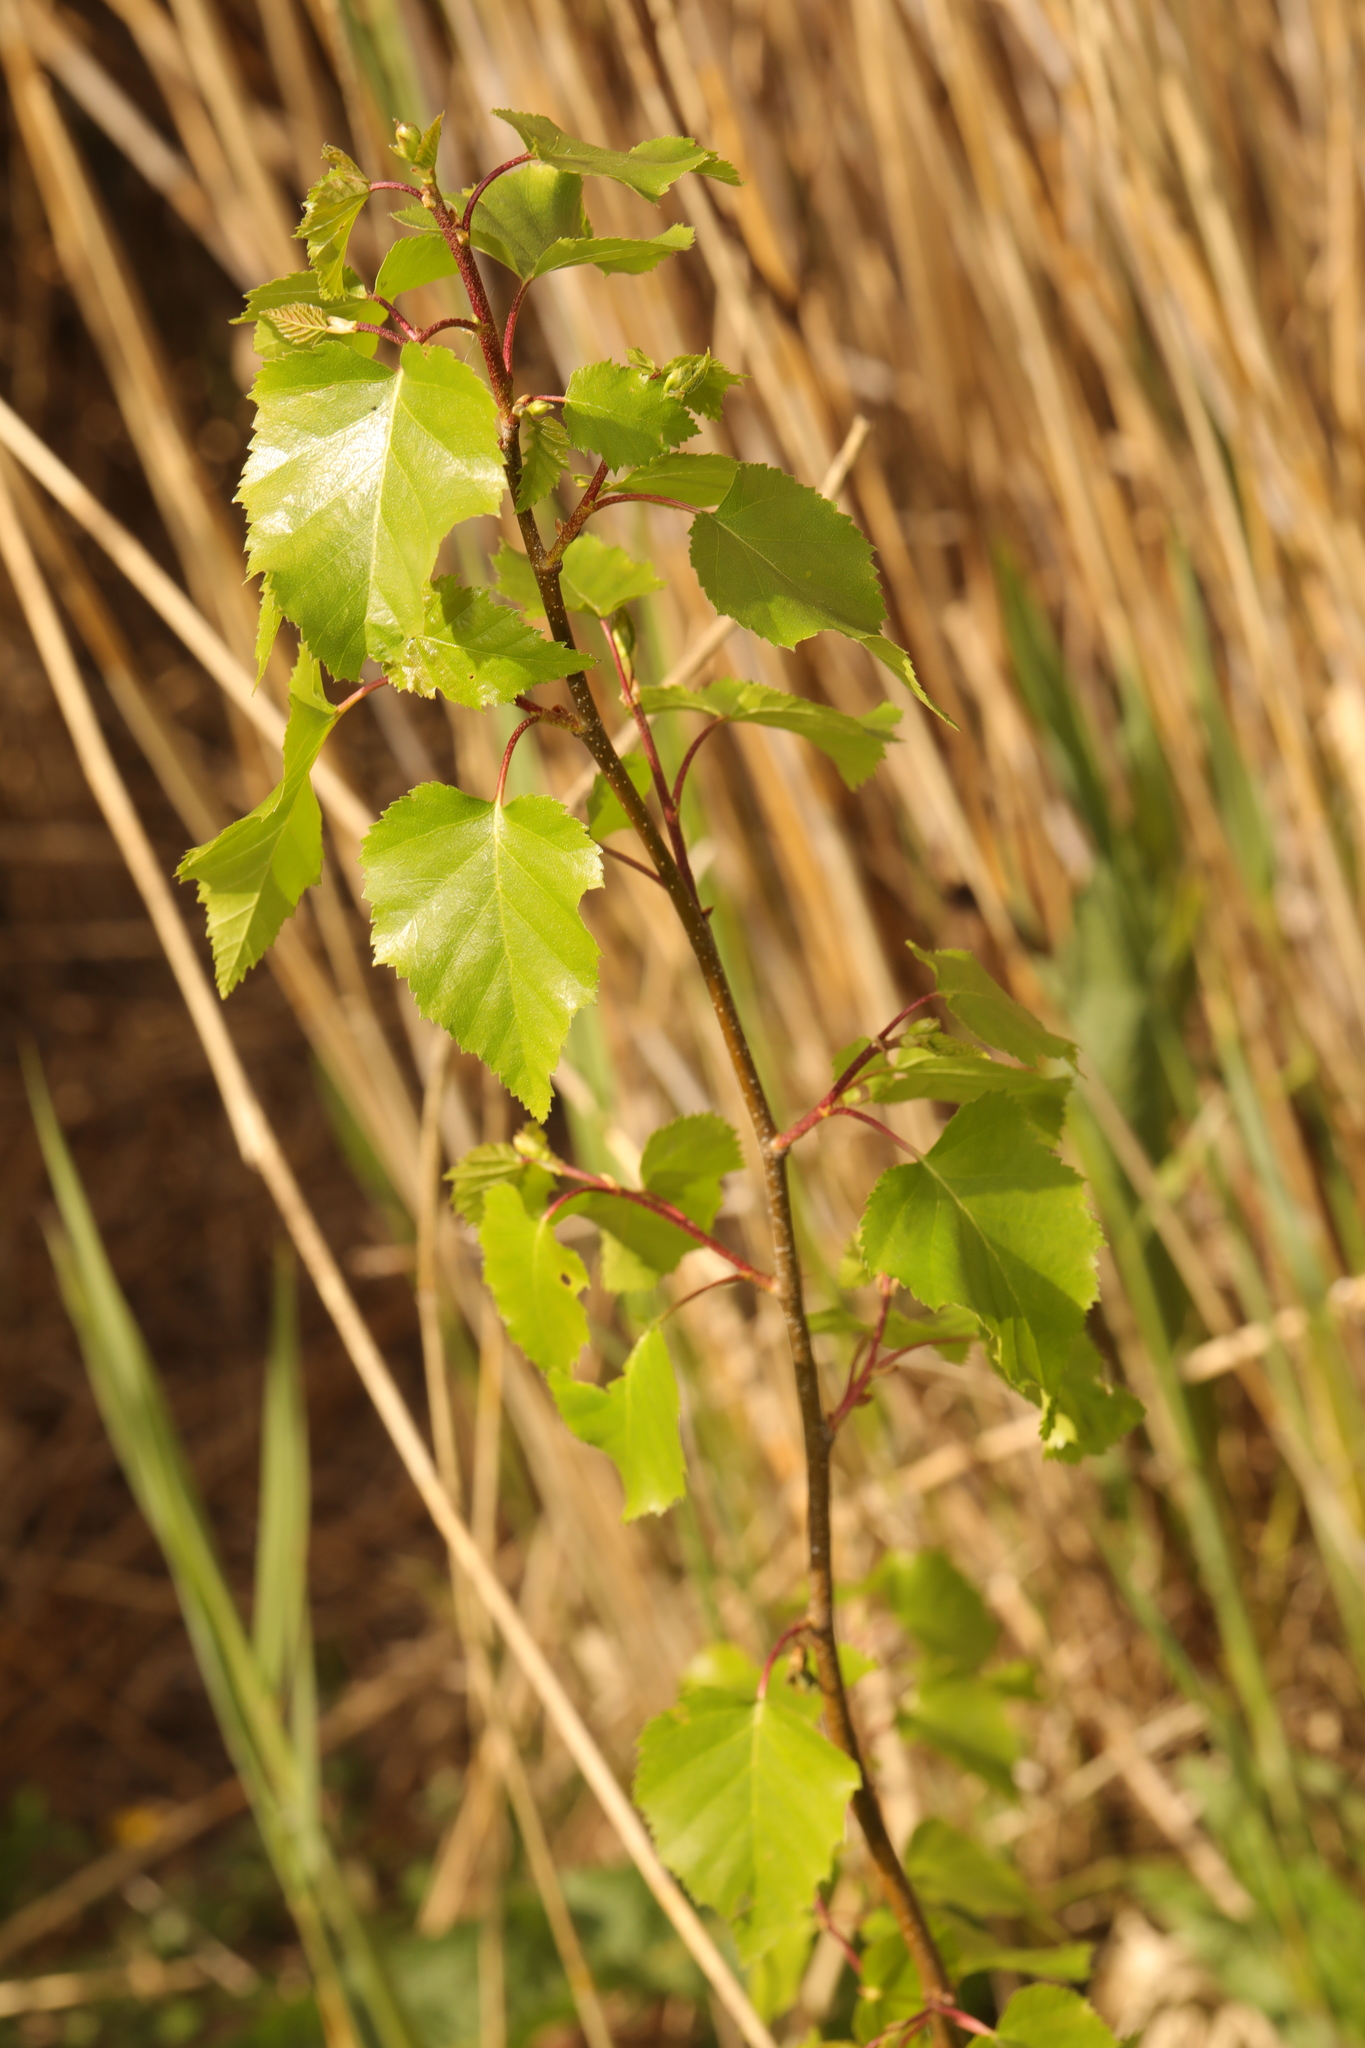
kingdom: Plantae
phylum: Tracheophyta
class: Magnoliopsida
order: Fagales
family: Betulaceae
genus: Betula
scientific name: Betula pendula
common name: Silver birch
